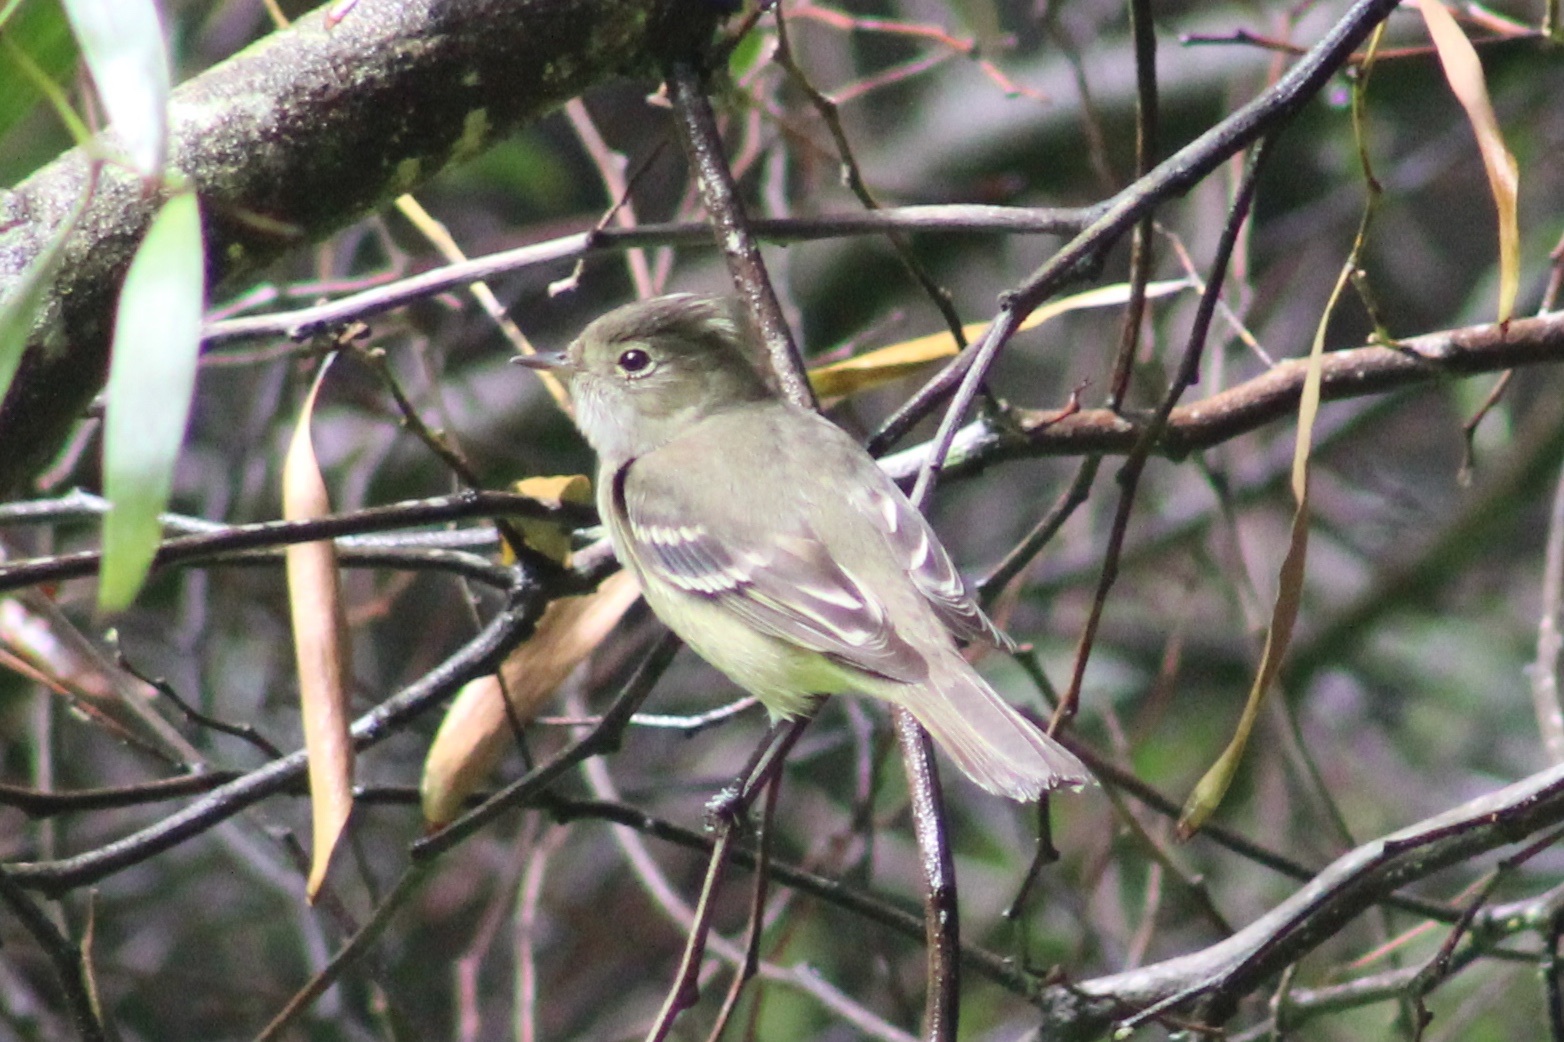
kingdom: Animalia
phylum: Chordata
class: Aves
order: Passeriformes
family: Tyrannidae
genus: Elaenia
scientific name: Elaenia albiceps
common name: White-crested elaenia
